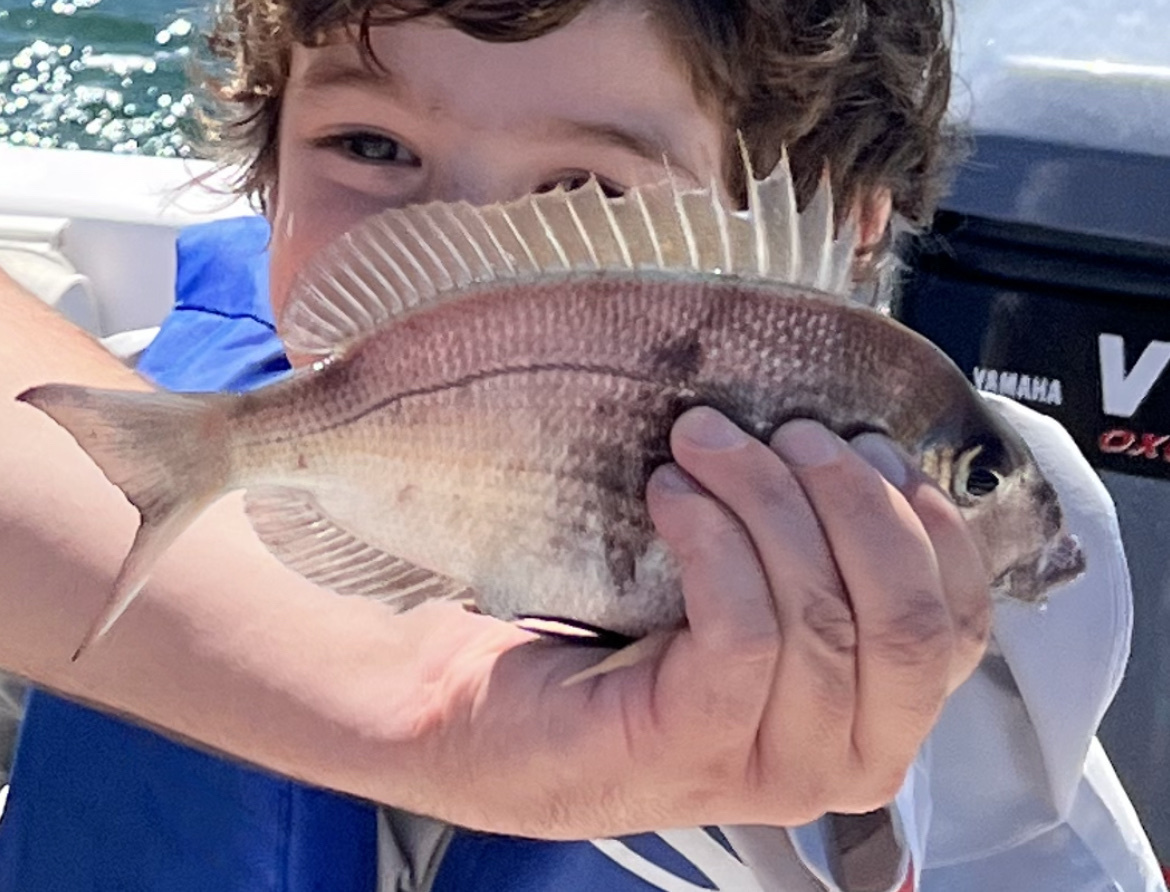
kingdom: Animalia
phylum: Chordata
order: Perciformes
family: Sparidae
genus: Stenotomus
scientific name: Stenotomus chrysops
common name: Scup
